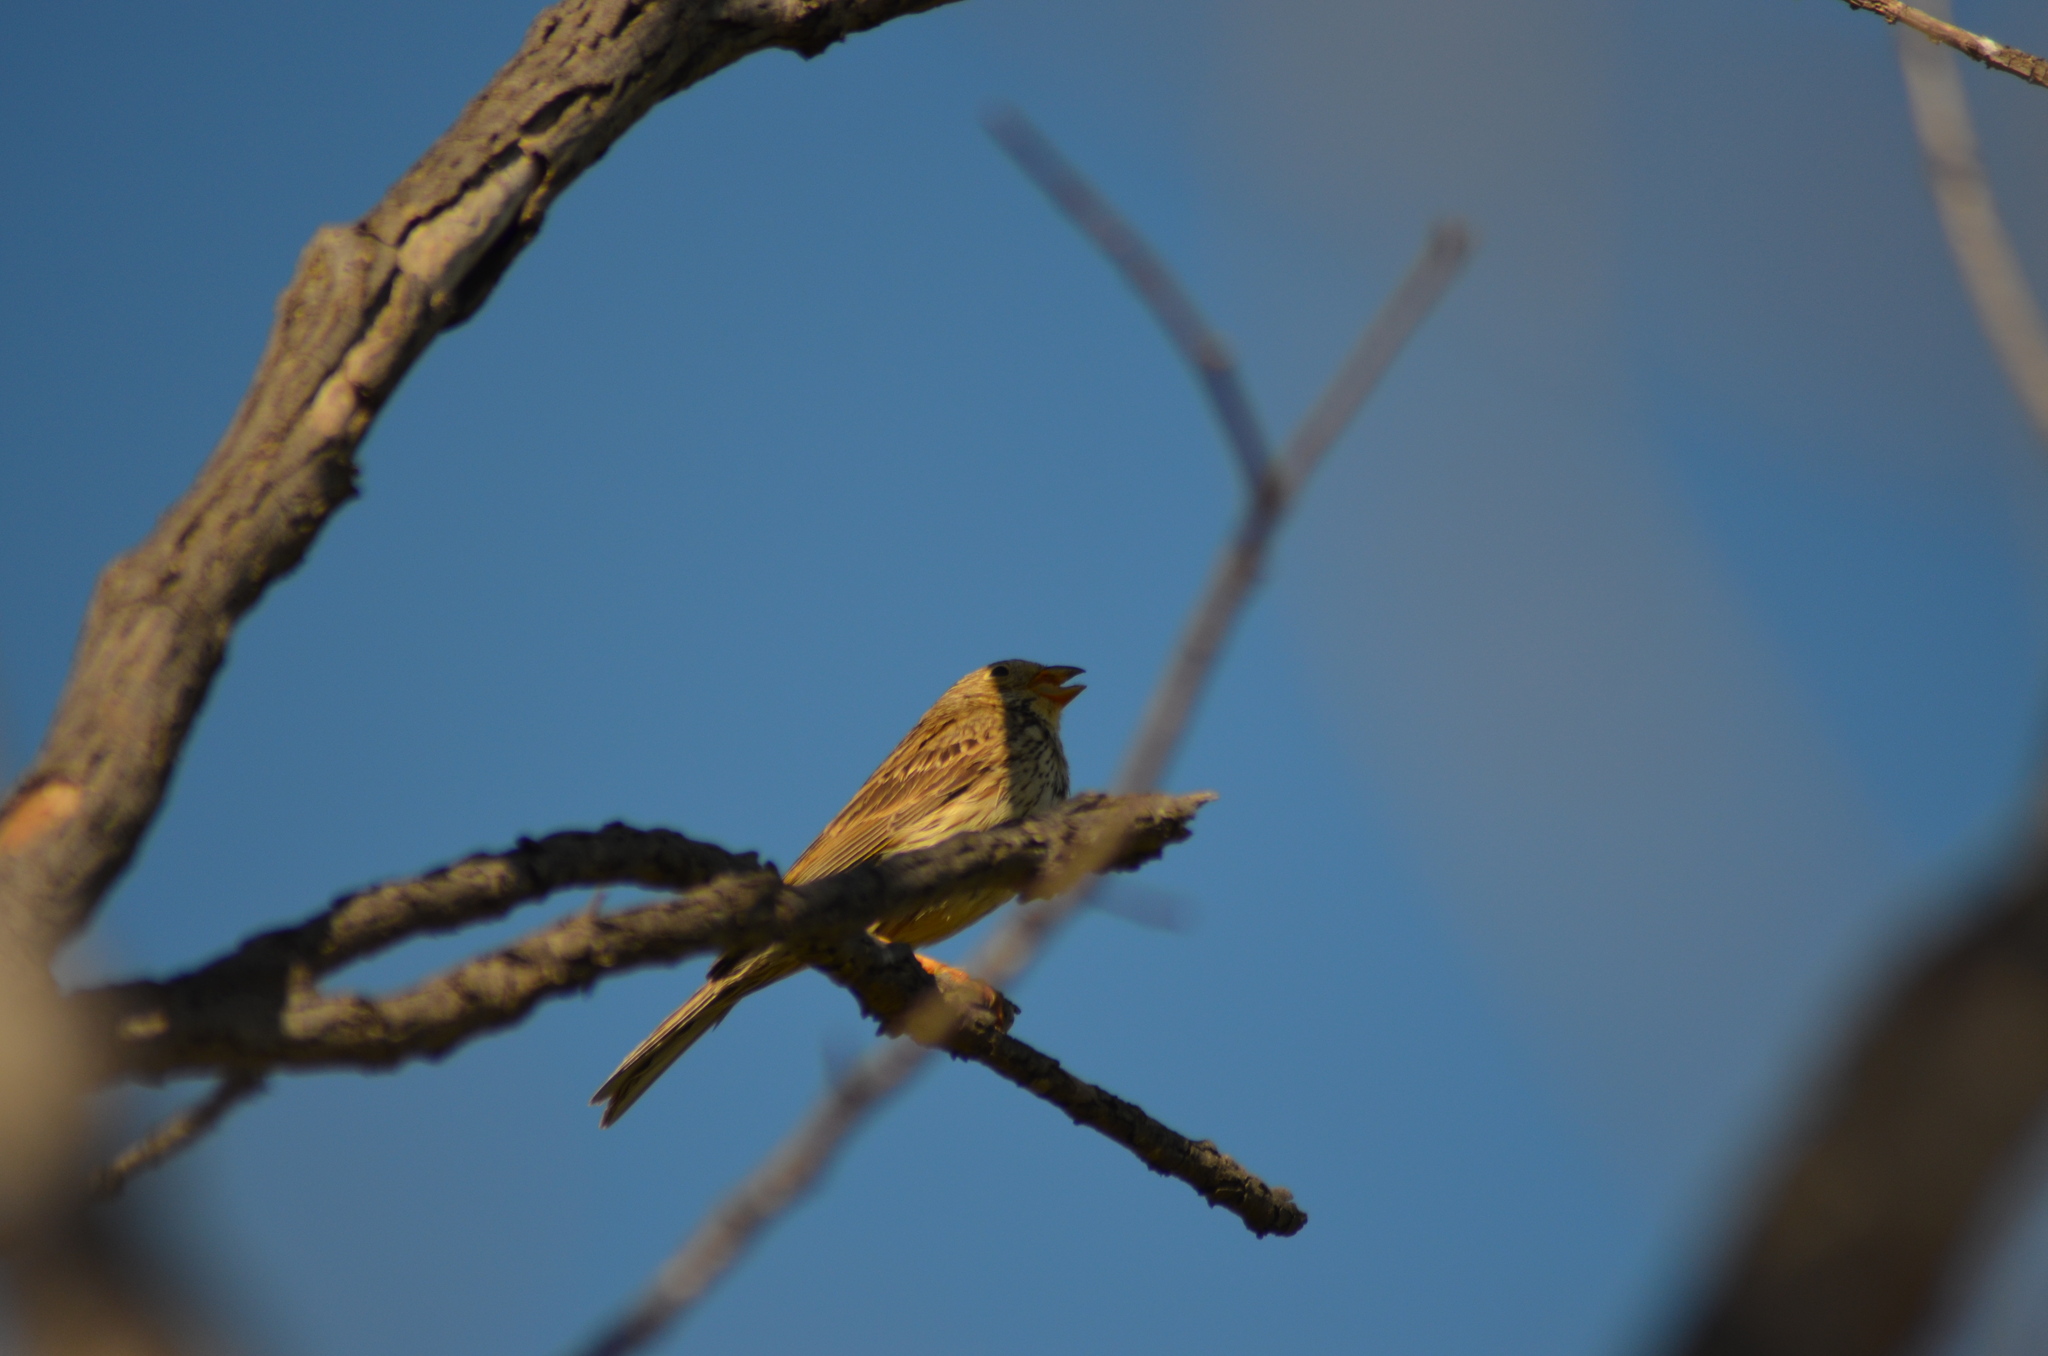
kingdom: Animalia
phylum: Chordata
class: Aves
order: Passeriformes
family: Emberizidae
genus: Emberiza
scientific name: Emberiza calandra
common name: Corn bunting
